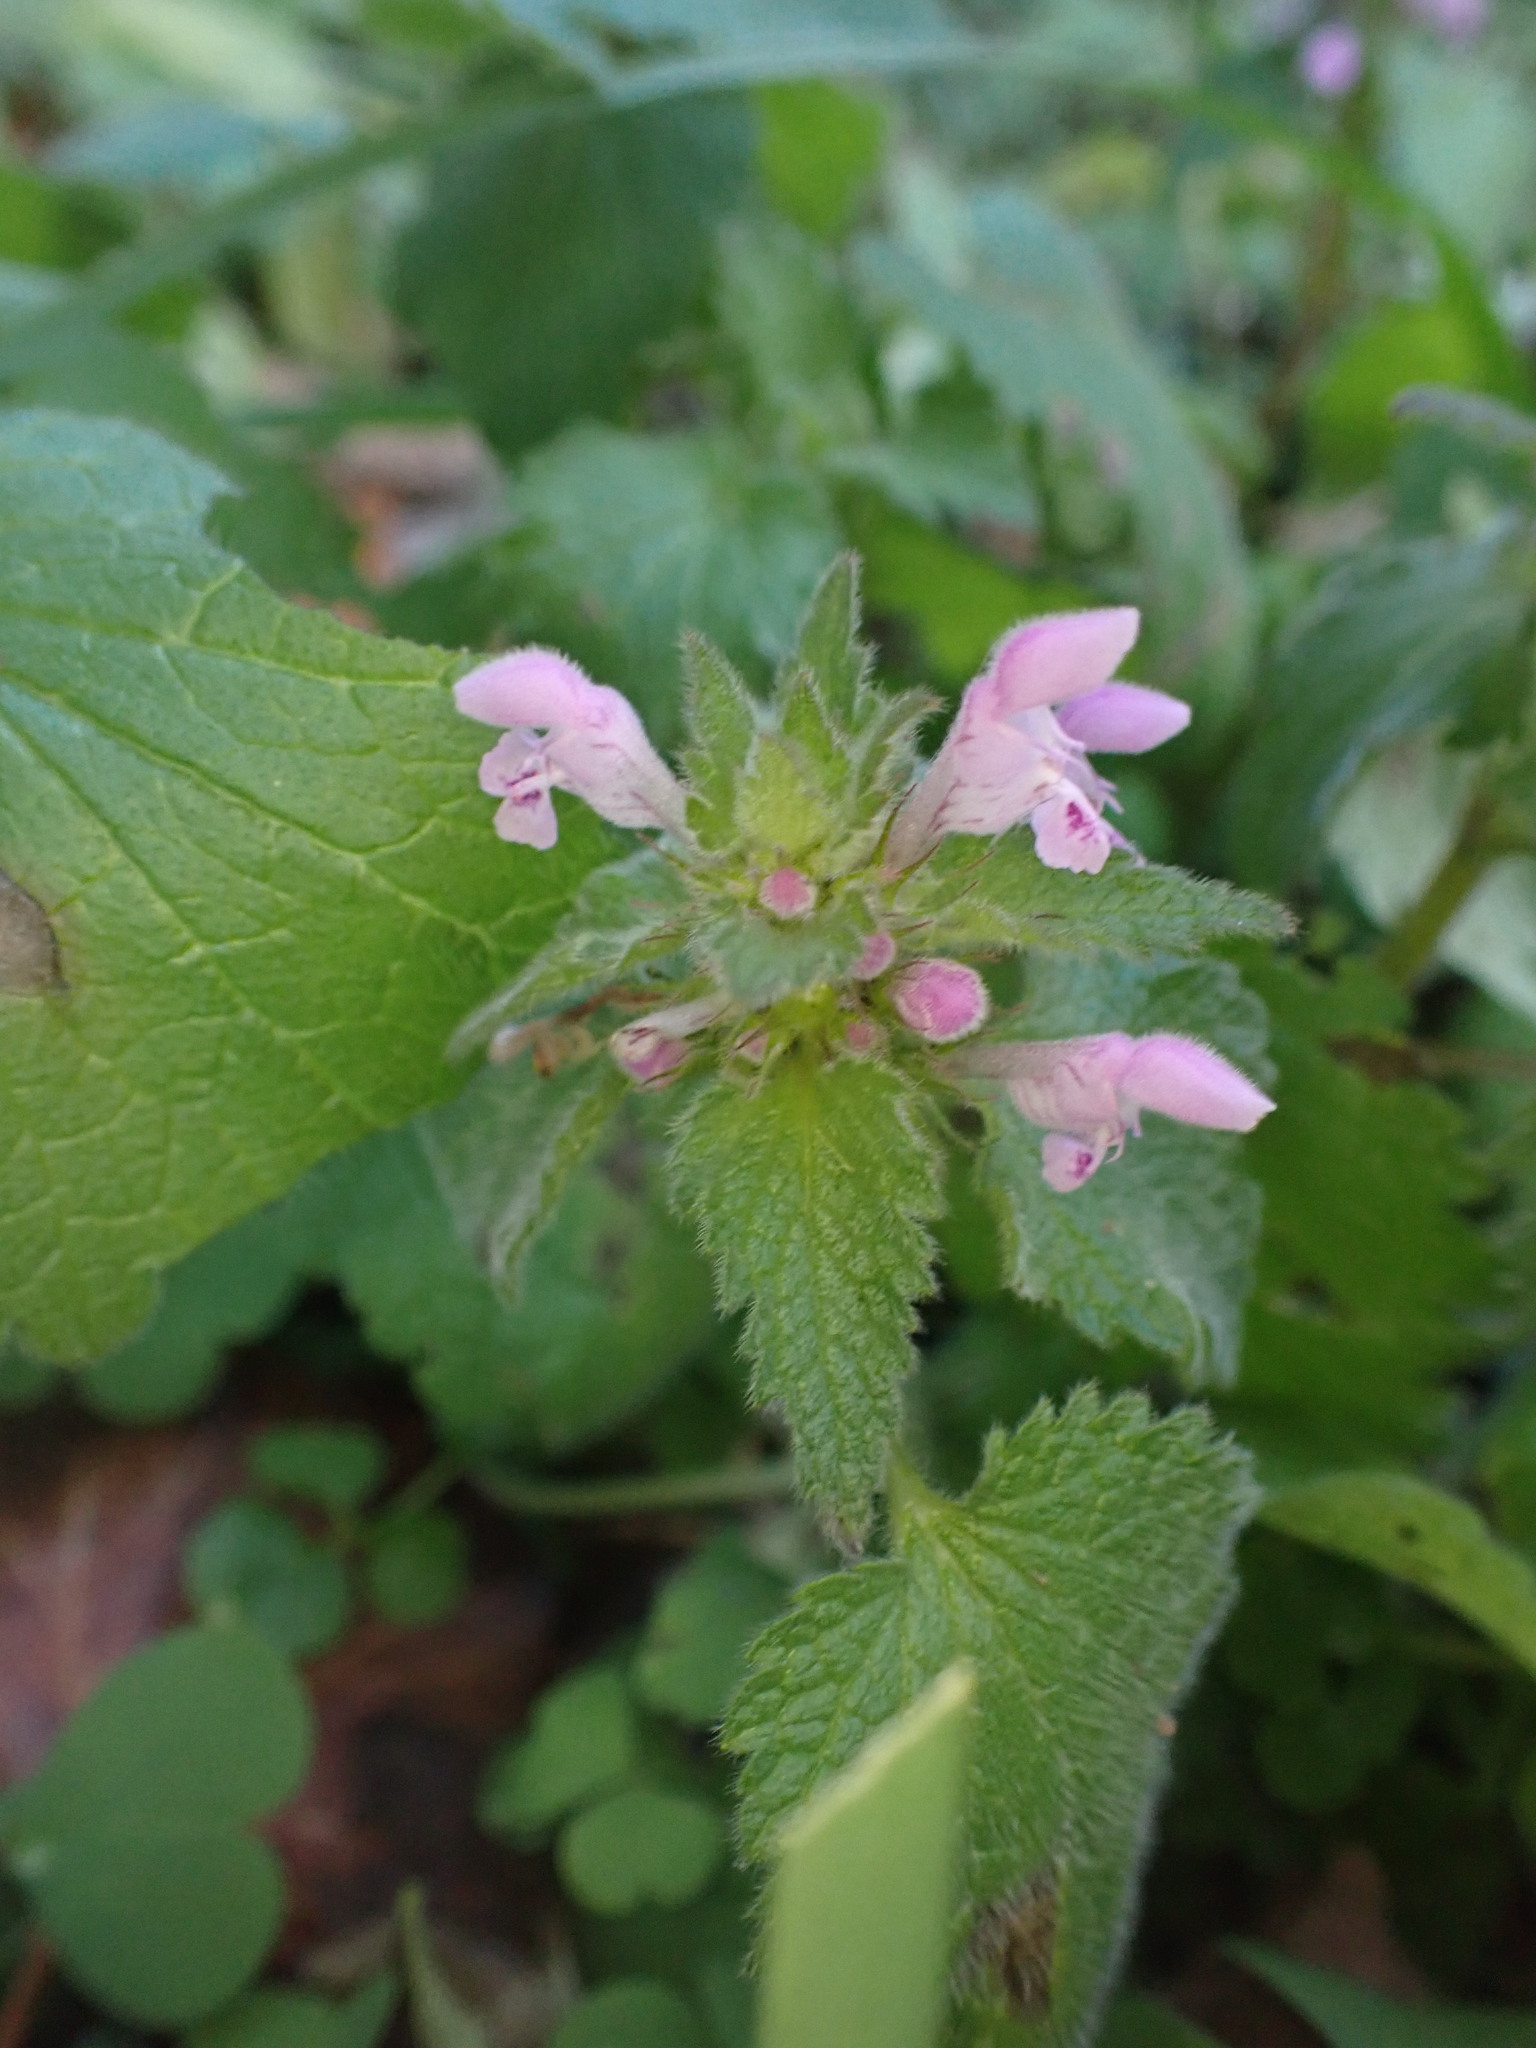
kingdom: Plantae
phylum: Tracheophyta
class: Magnoliopsida
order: Lamiales
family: Lamiaceae
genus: Lamium
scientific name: Lamium purpureum
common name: Red dead-nettle
